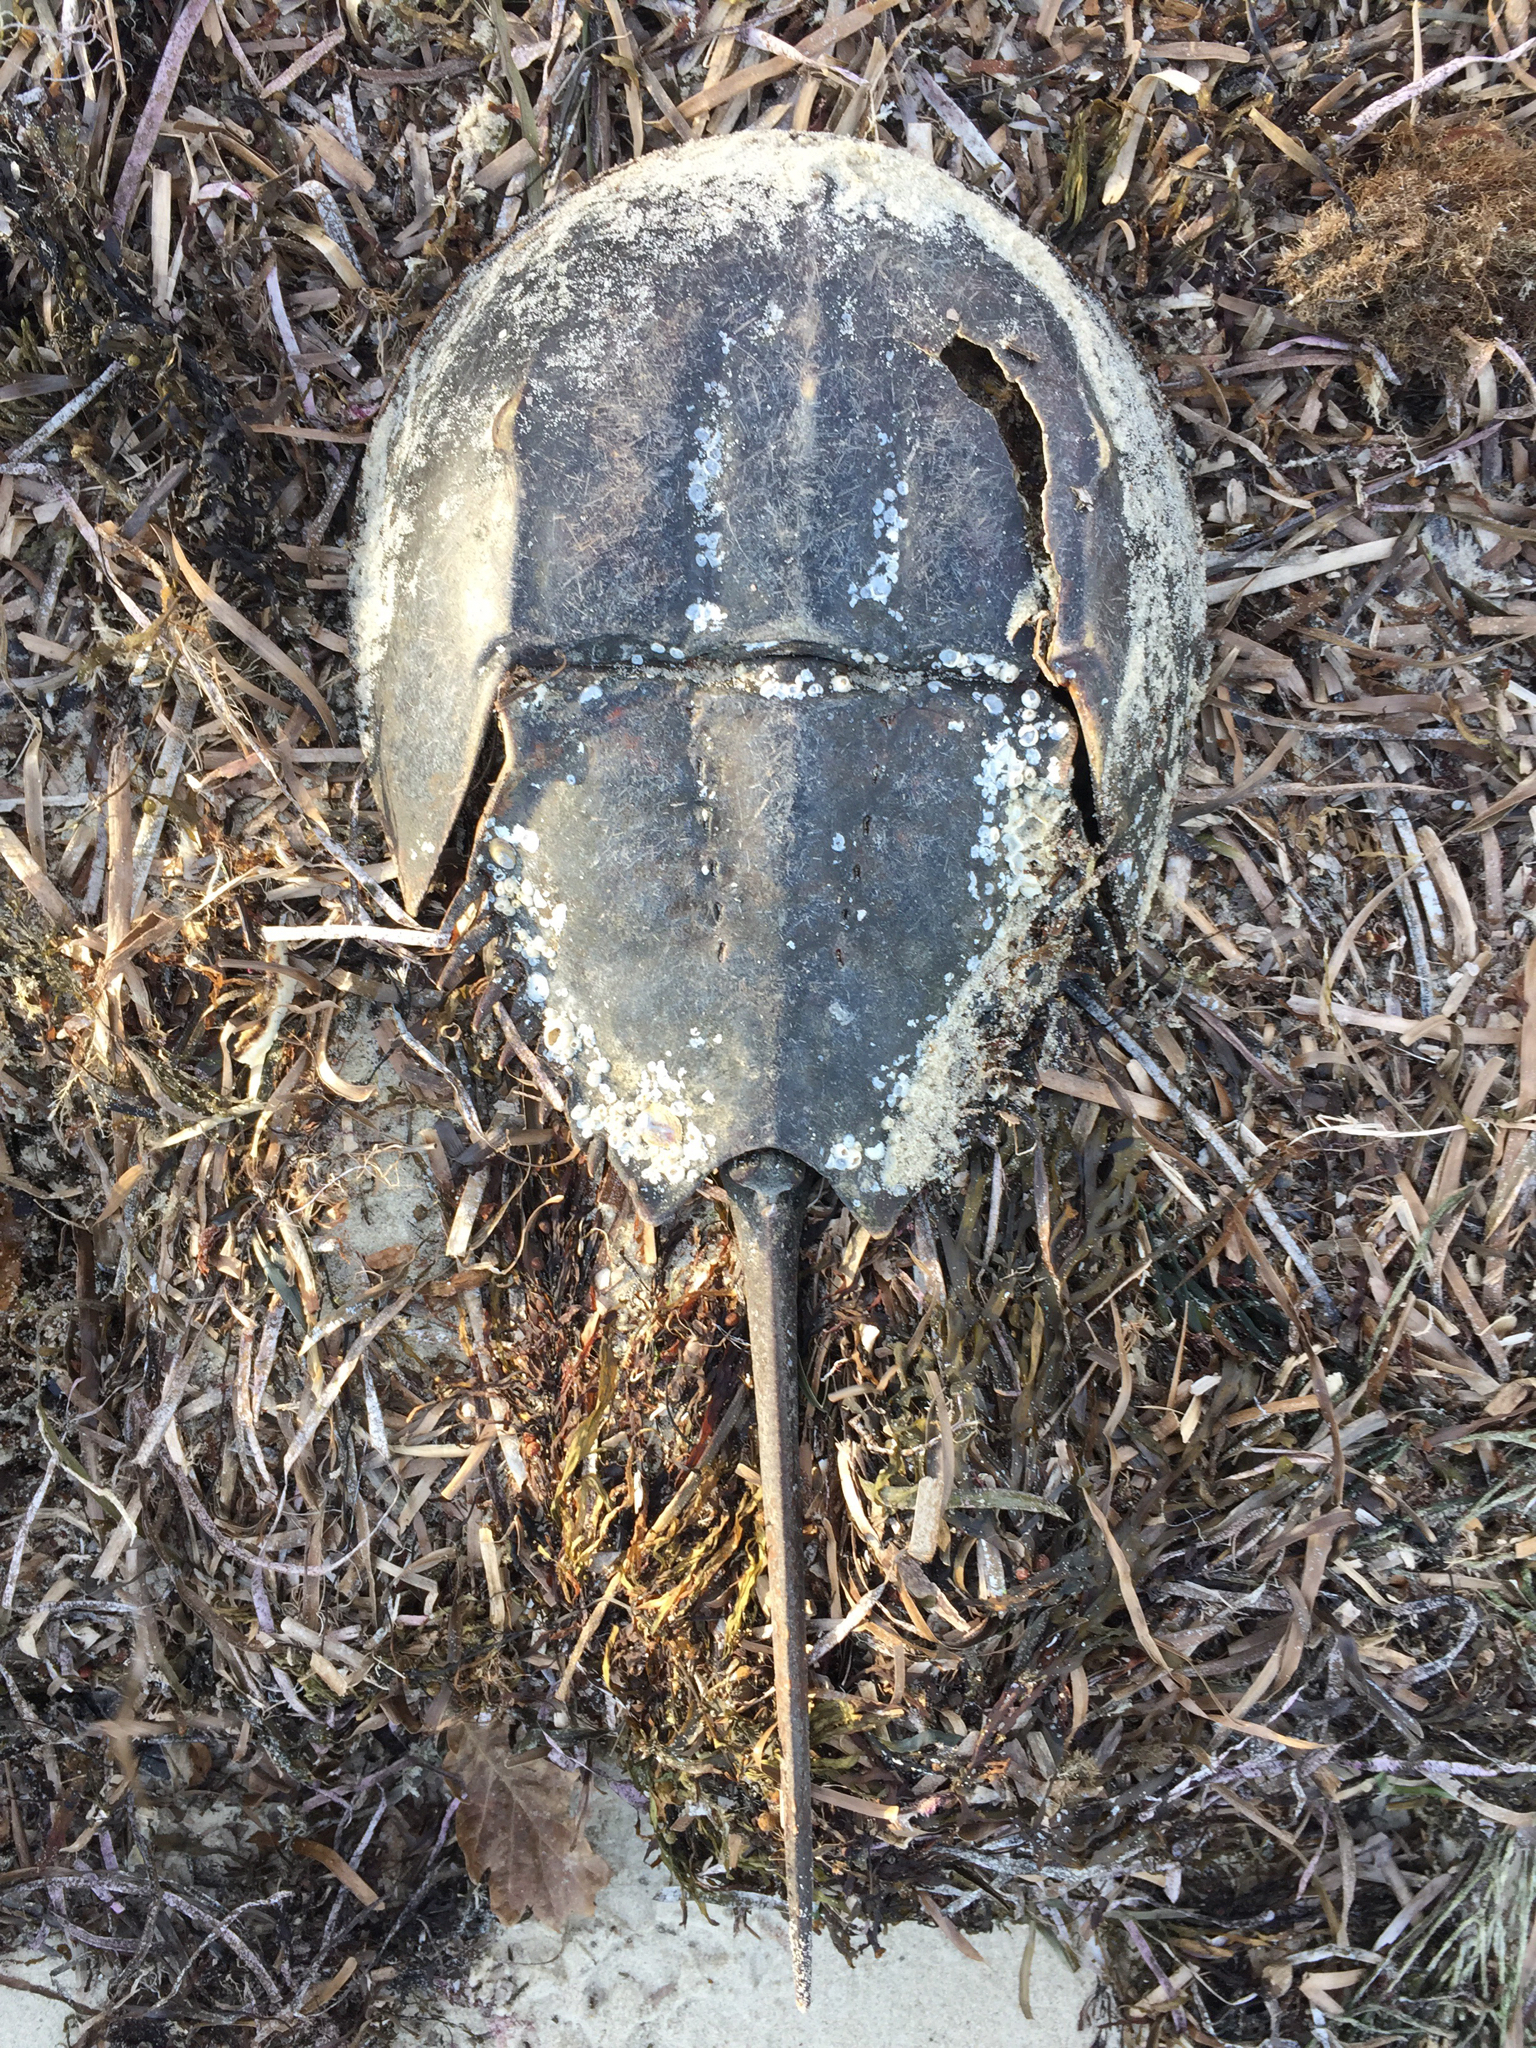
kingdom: Animalia
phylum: Arthropoda
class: Merostomata
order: Xiphosurida
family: Limulidae
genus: Limulus
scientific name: Limulus polyphemus
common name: Horseshoe crab
